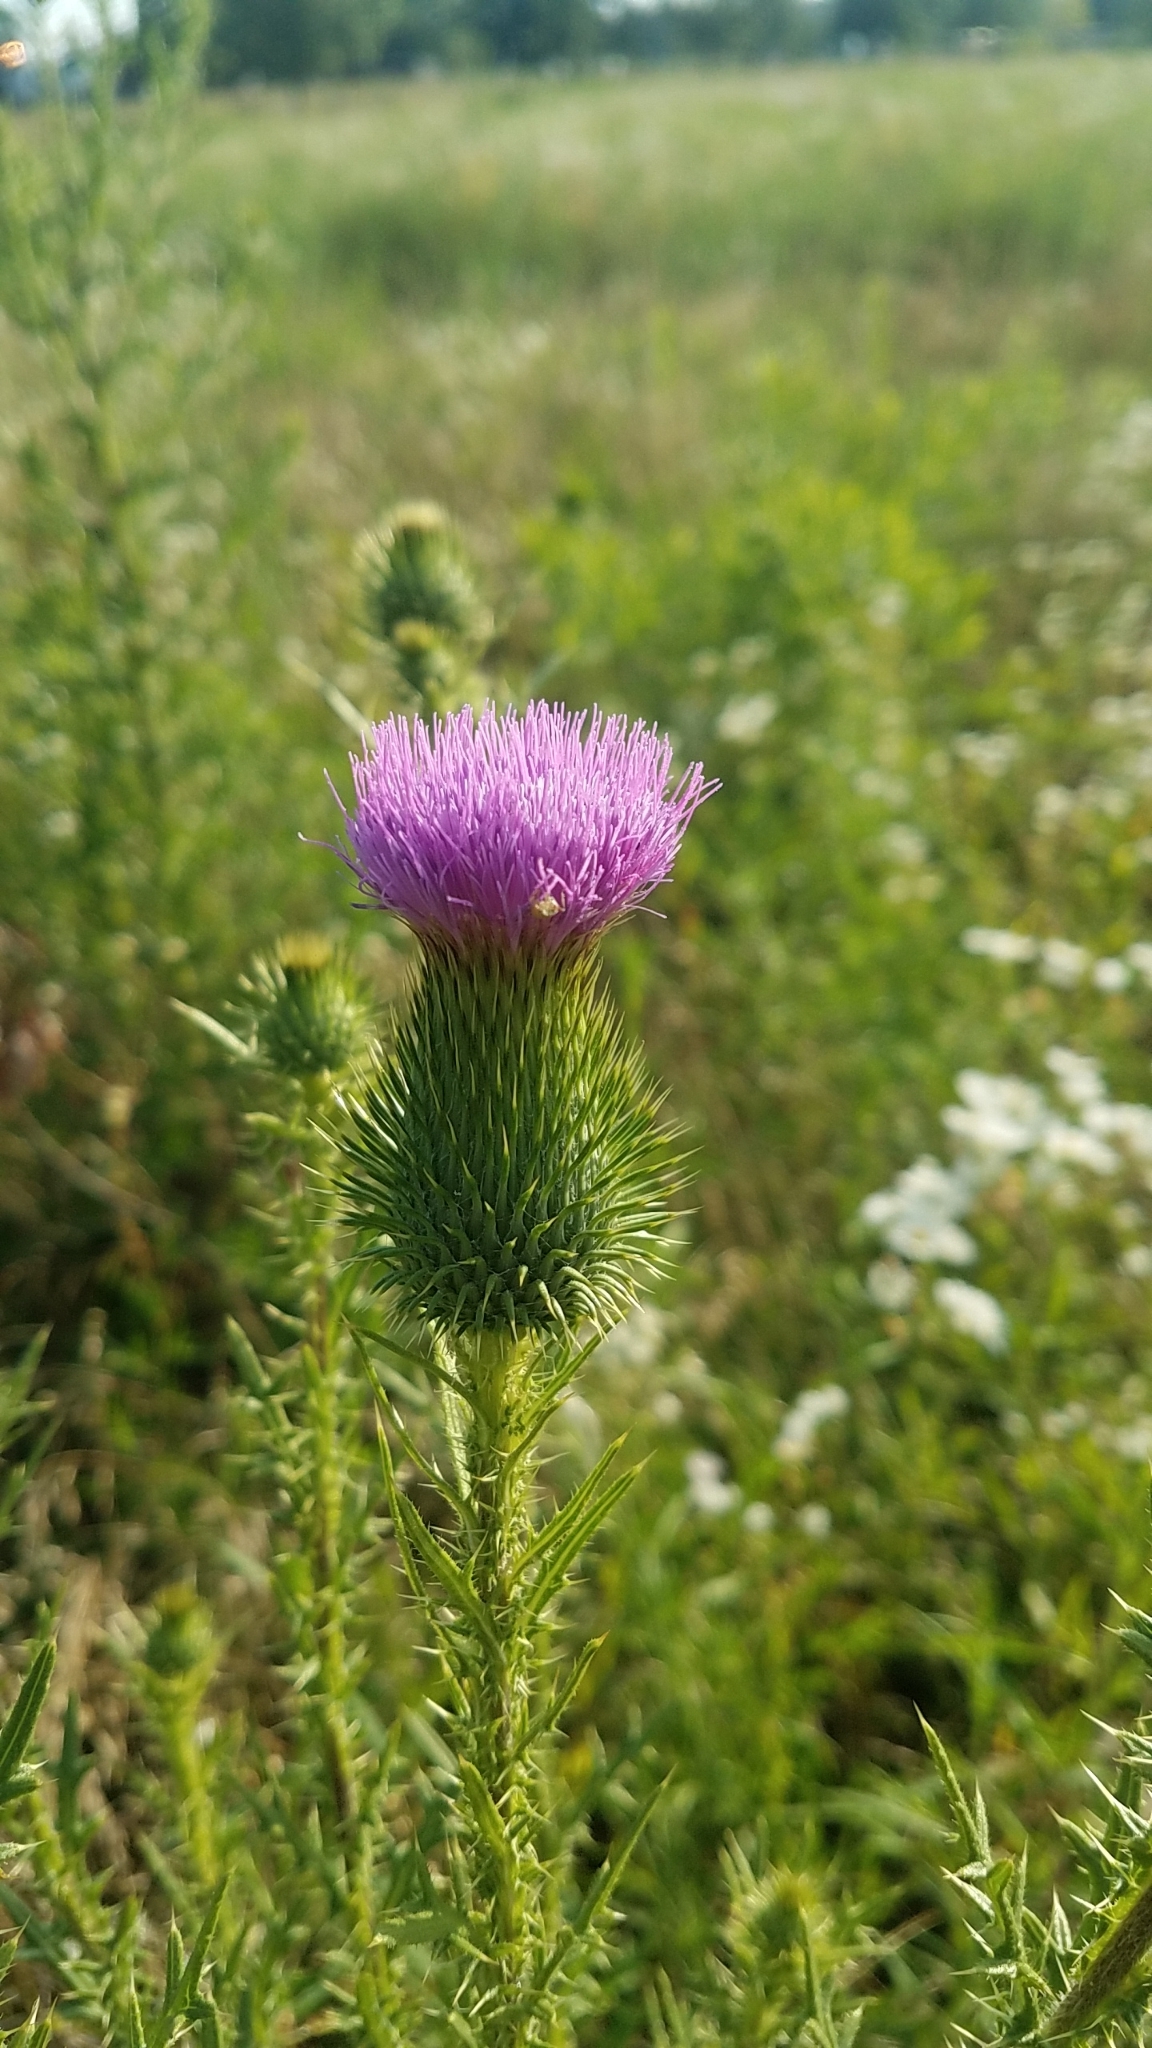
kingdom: Plantae
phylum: Tracheophyta
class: Magnoliopsida
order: Asterales
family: Asteraceae
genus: Cirsium
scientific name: Cirsium vulgare
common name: Bull thistle
